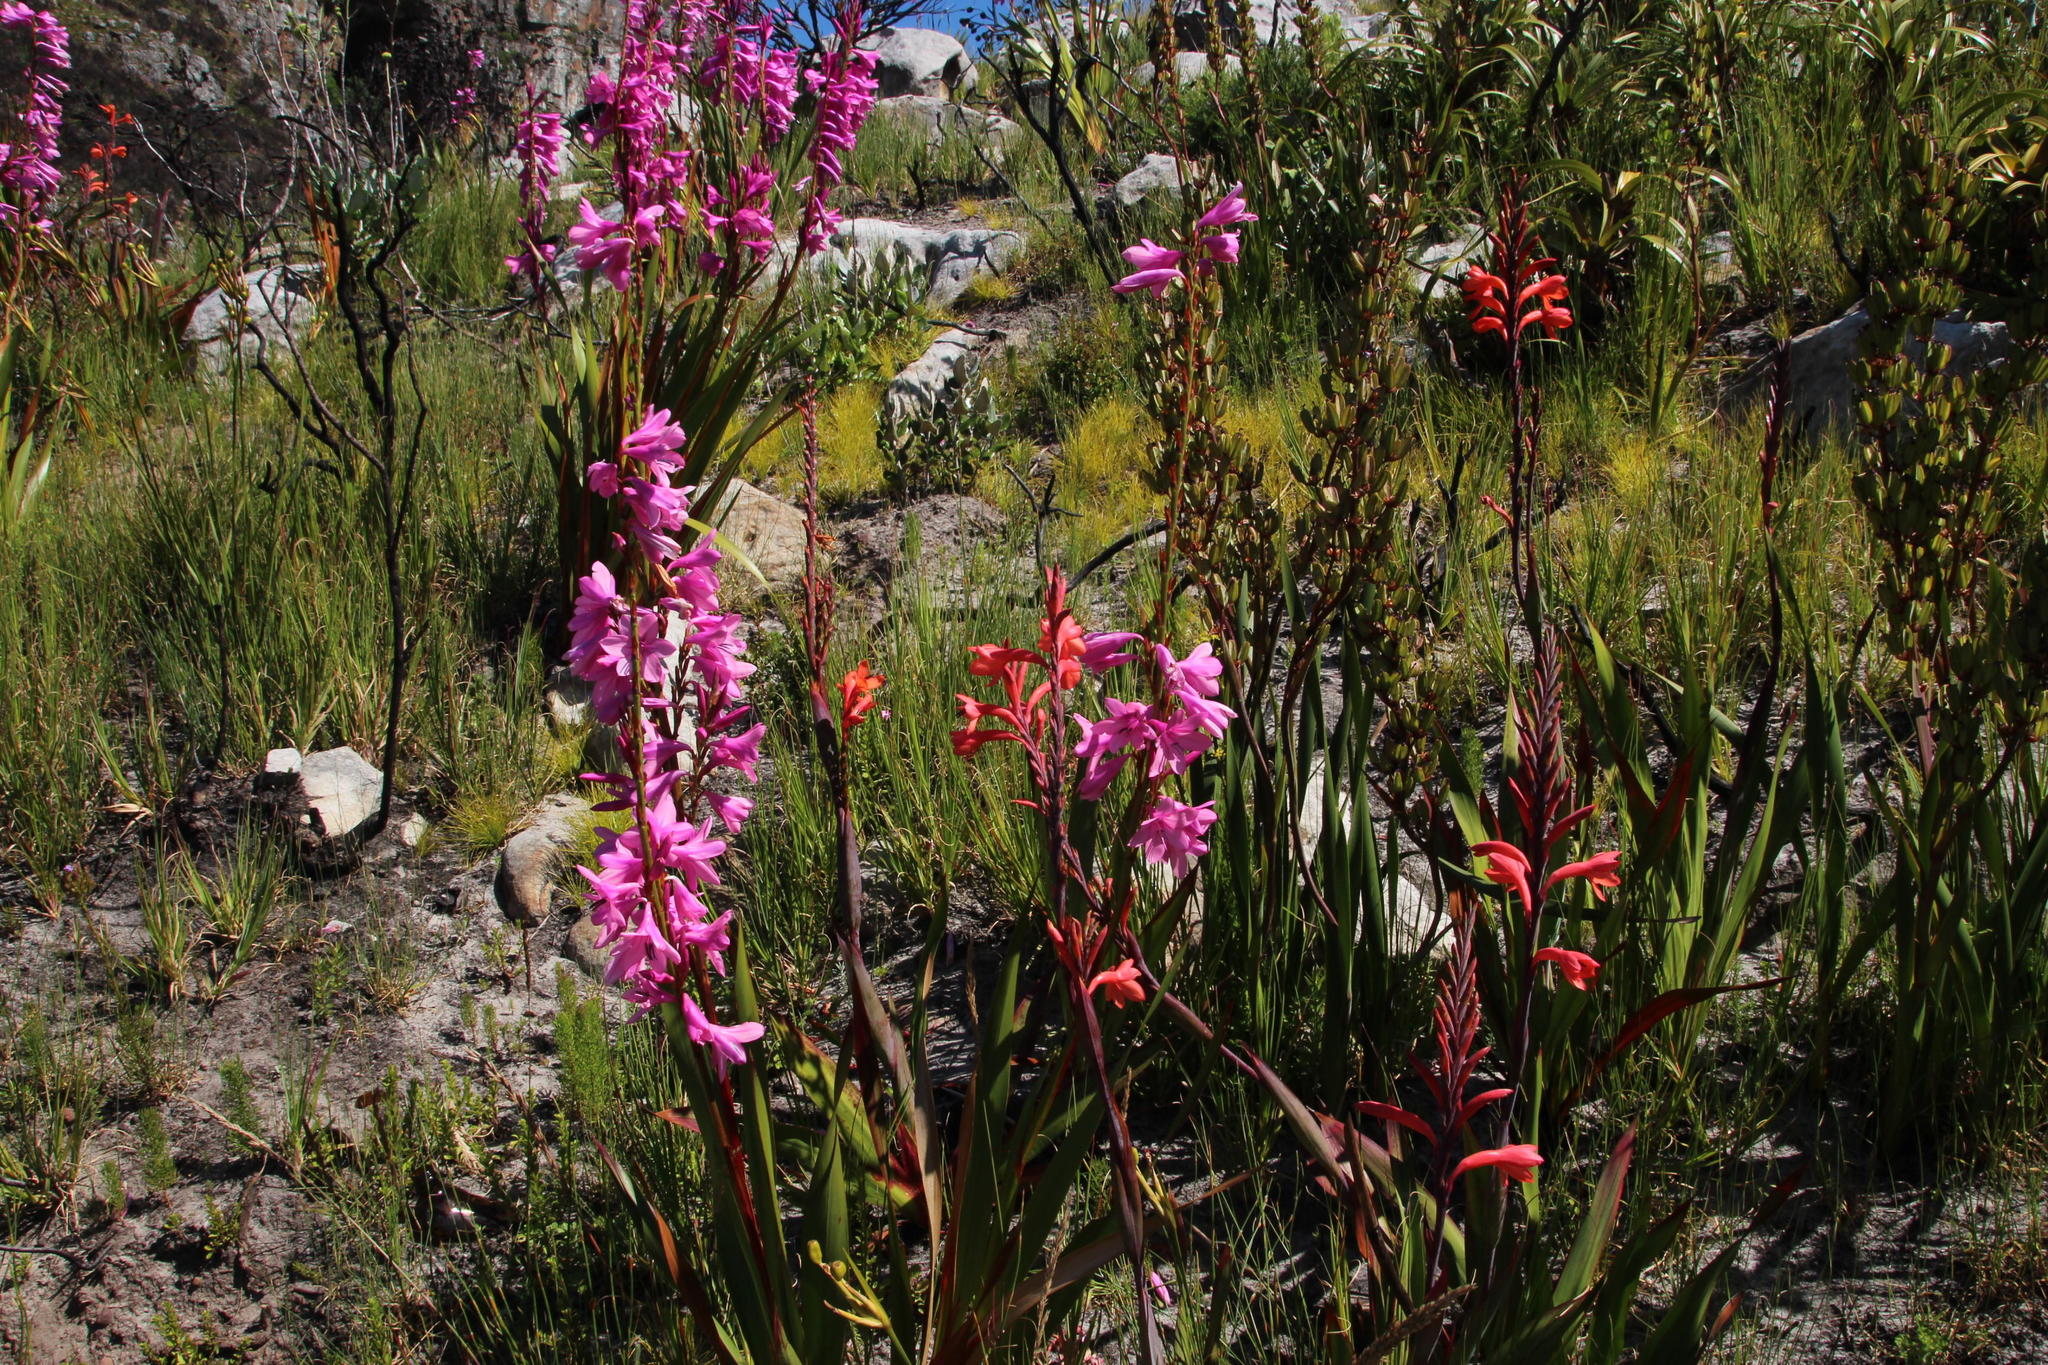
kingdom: Plantae
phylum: Tracheophyta
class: Liliopsida
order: Asparagales
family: Iridaceae
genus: Watsonia
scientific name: Watsonia borbonica
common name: Bugle-lily
